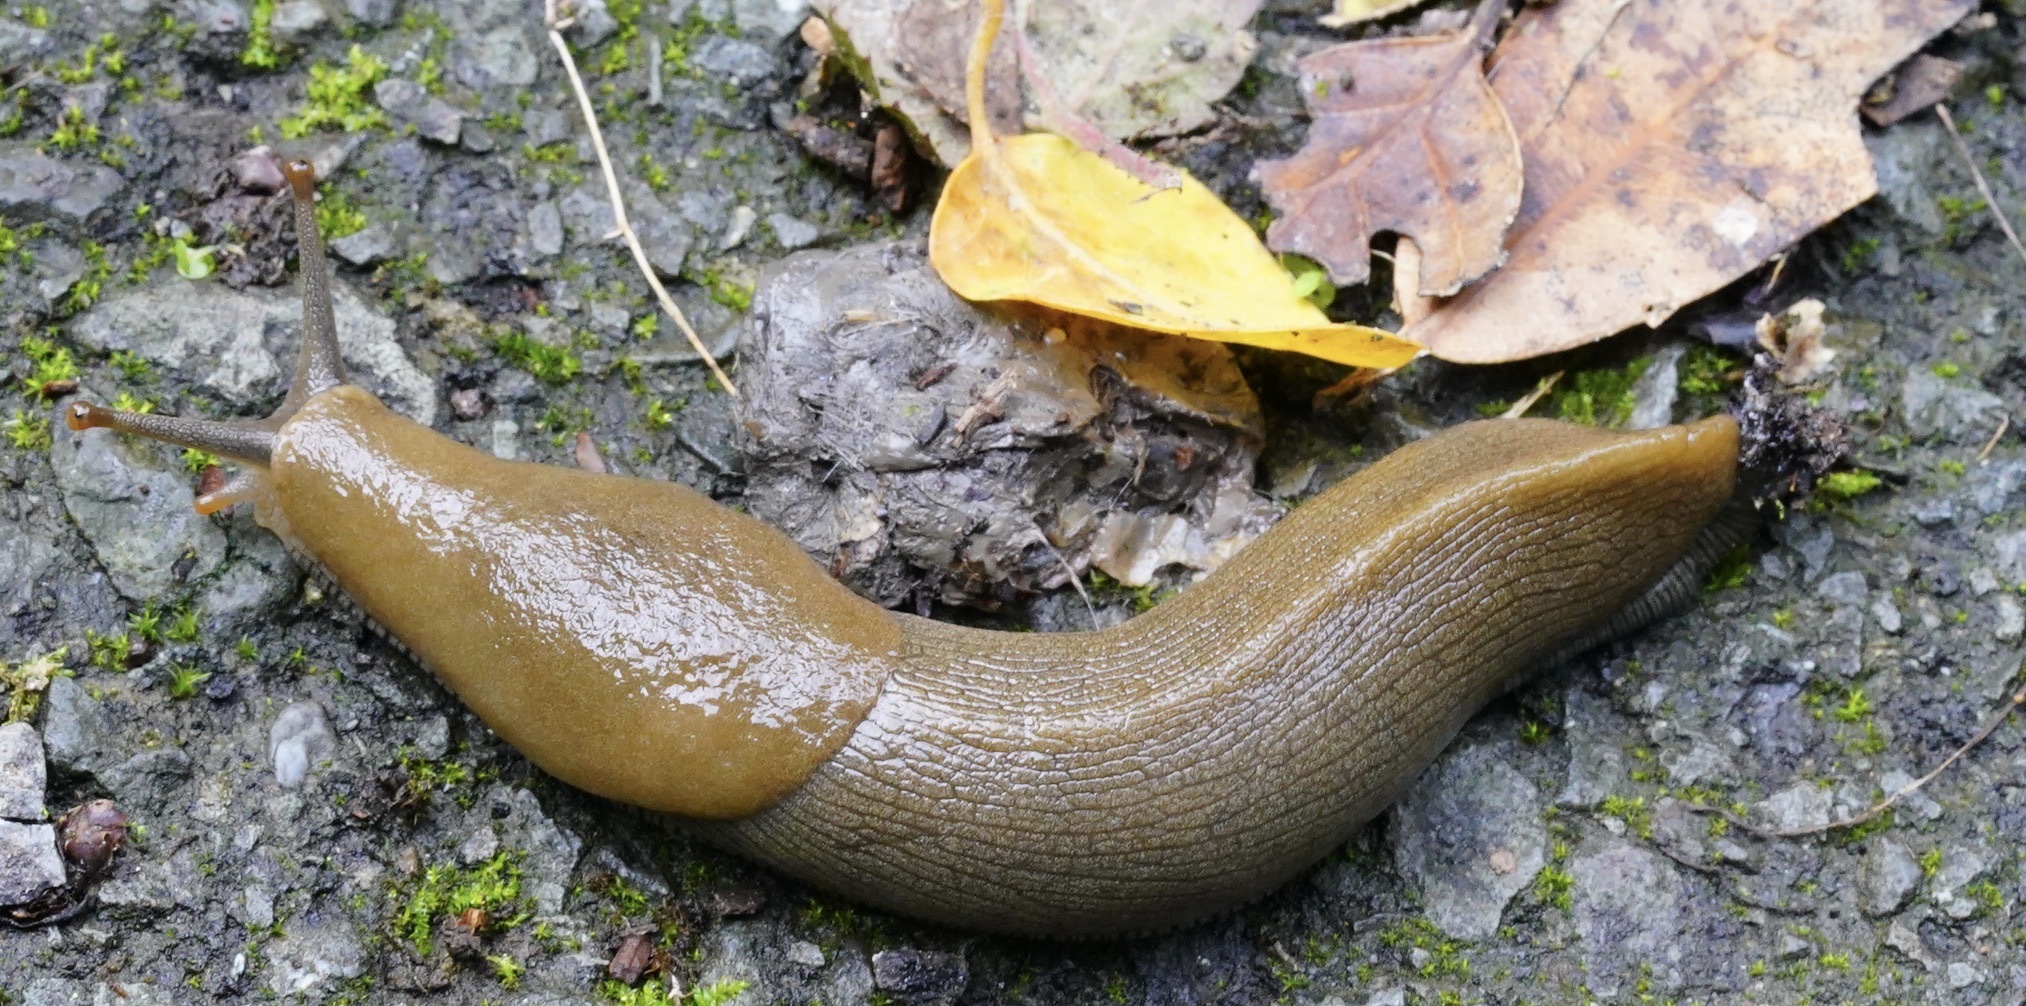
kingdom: Animalia
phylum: Mollusca
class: Gastropoda
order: Stylommatophora
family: Ariolimacidae
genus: Ariolimax
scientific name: Ariolimax buttoni
